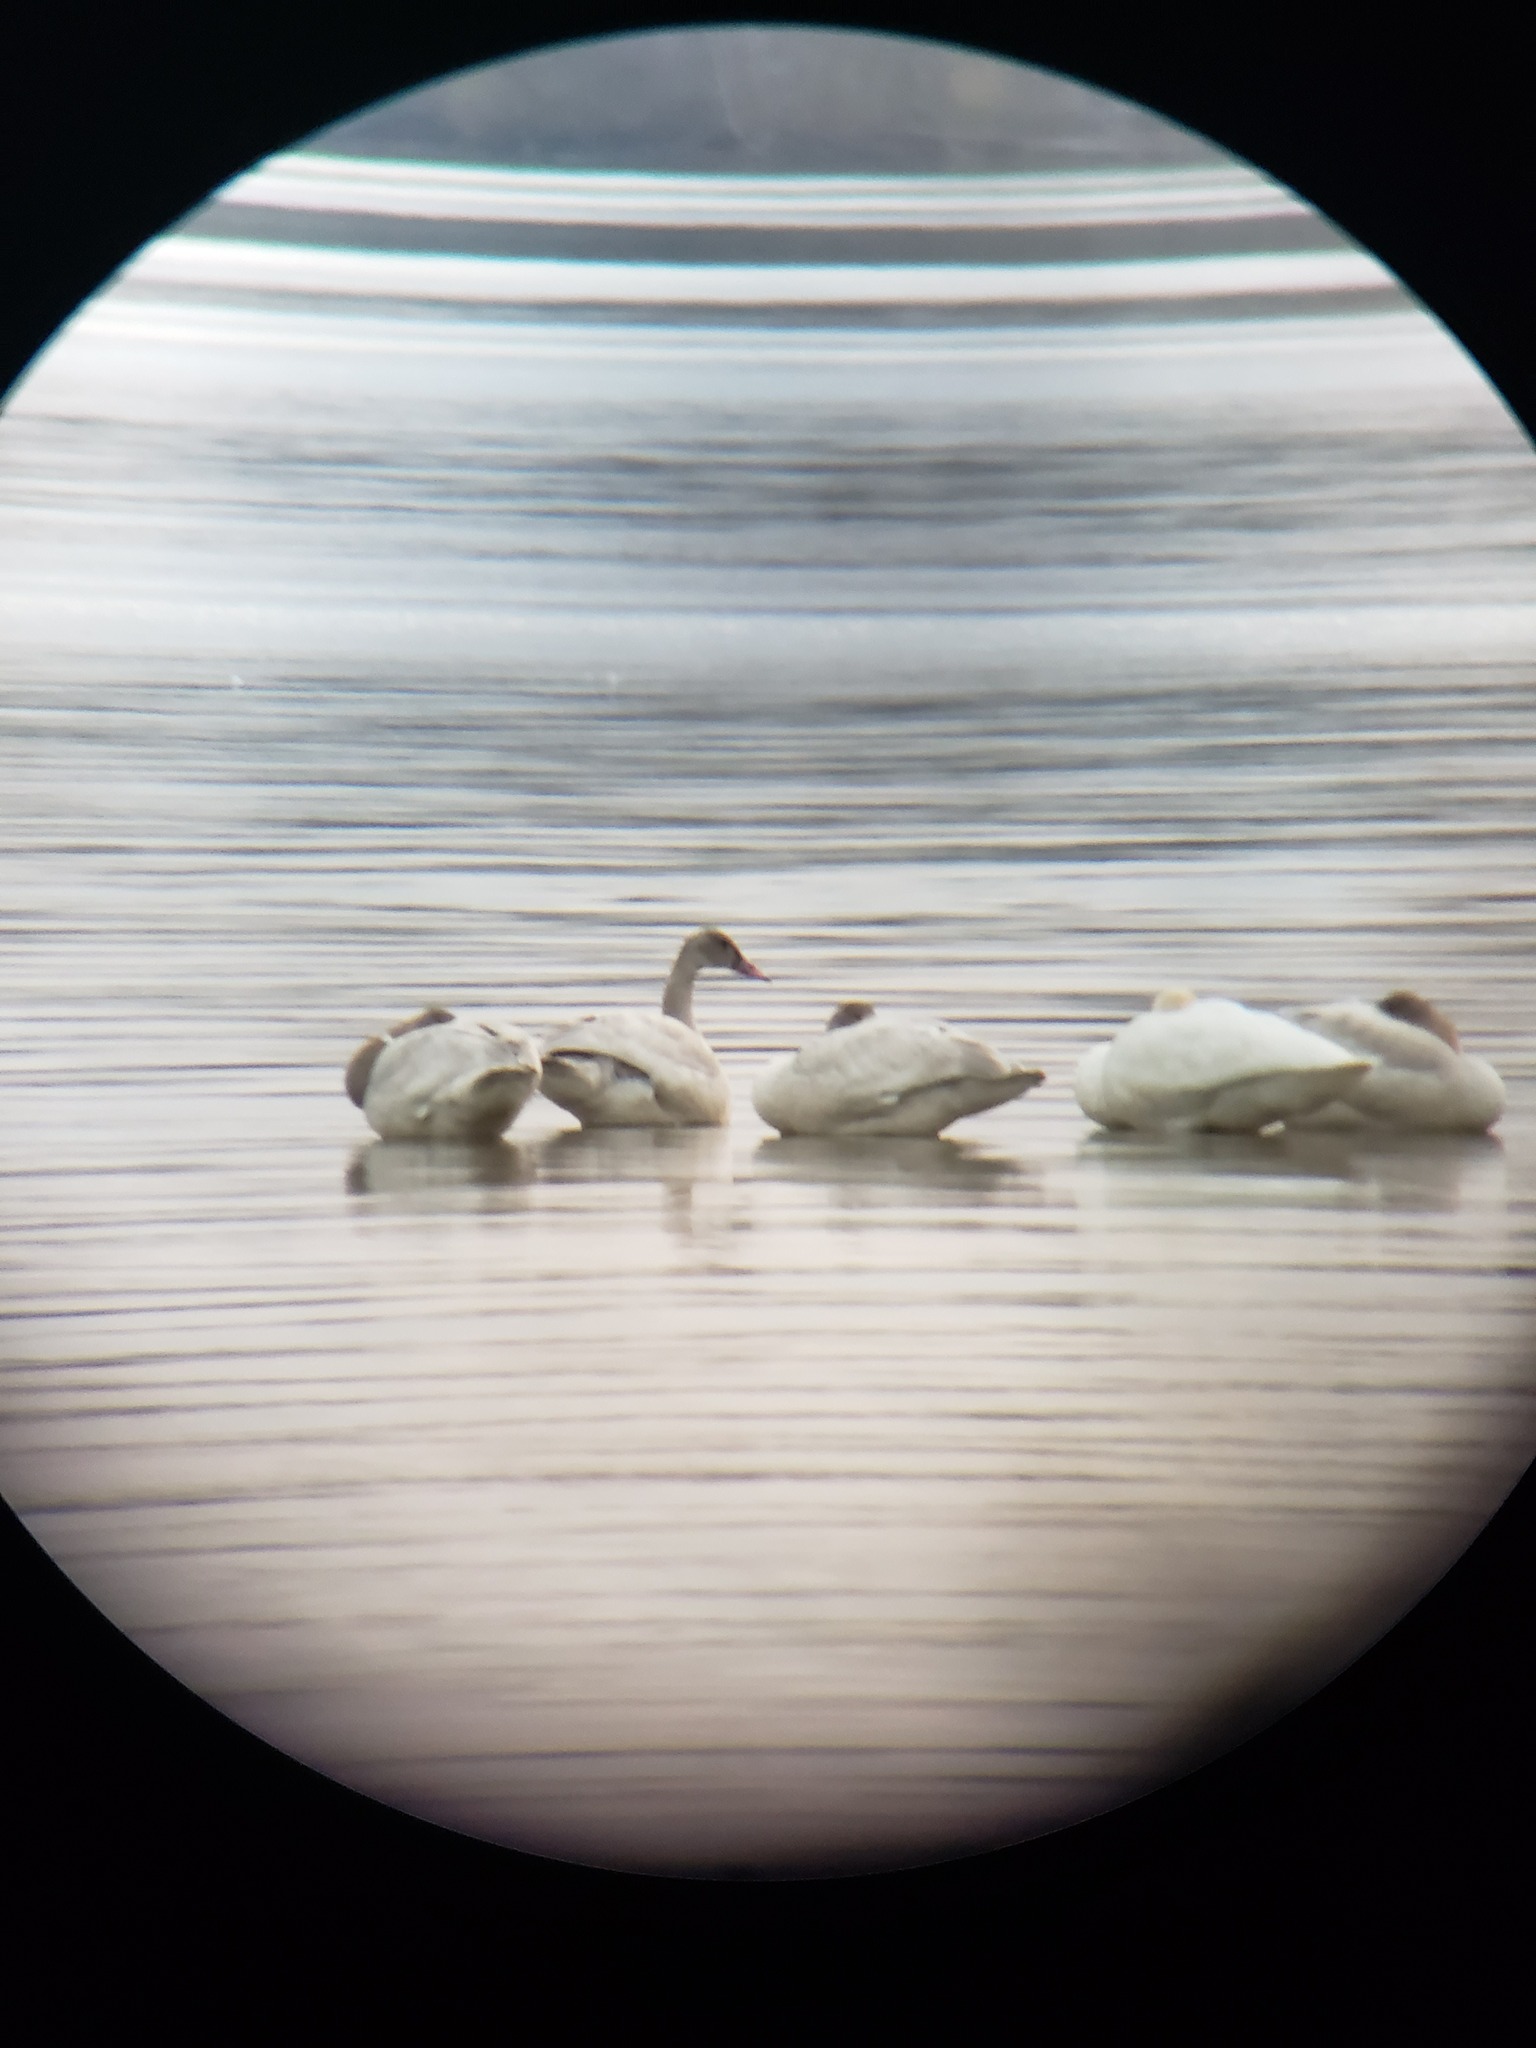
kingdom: Animalia
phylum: Chordata
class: Aves
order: Anseriformes
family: Anatidae
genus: Cygnus
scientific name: Cygnus columbianus
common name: Tundra swan
